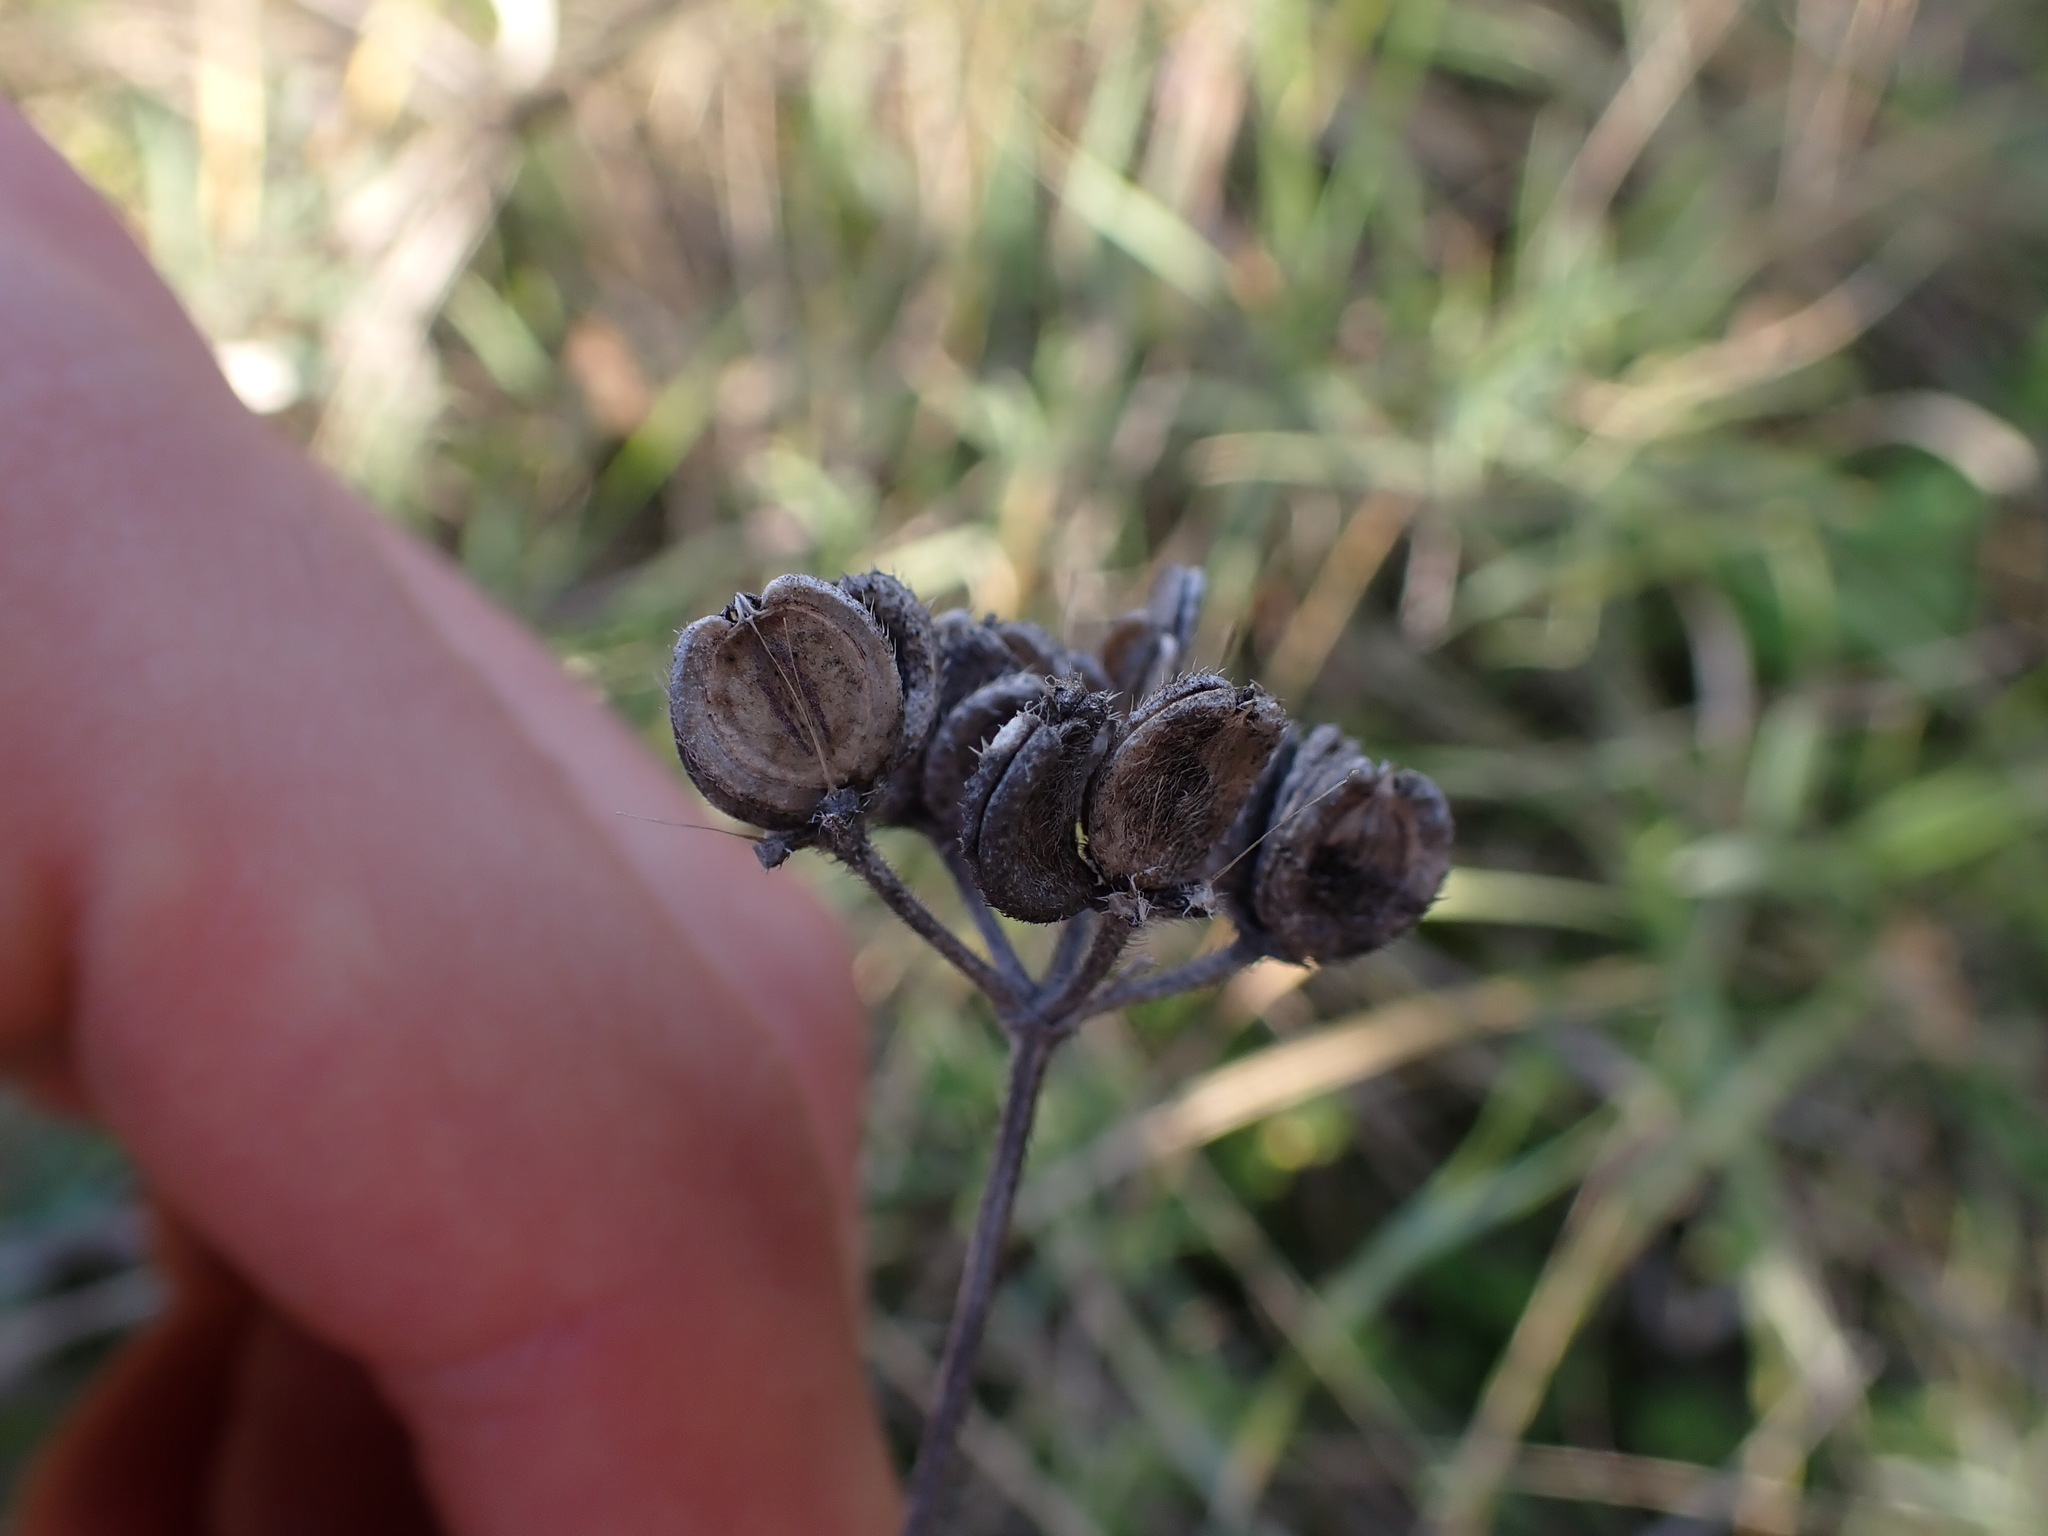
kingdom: Plantae
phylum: Tracheophyta
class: Magnoliopsida
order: Apiales
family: Apiaceae
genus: Tordylium
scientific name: Tordylium maximum
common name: Hartwort
